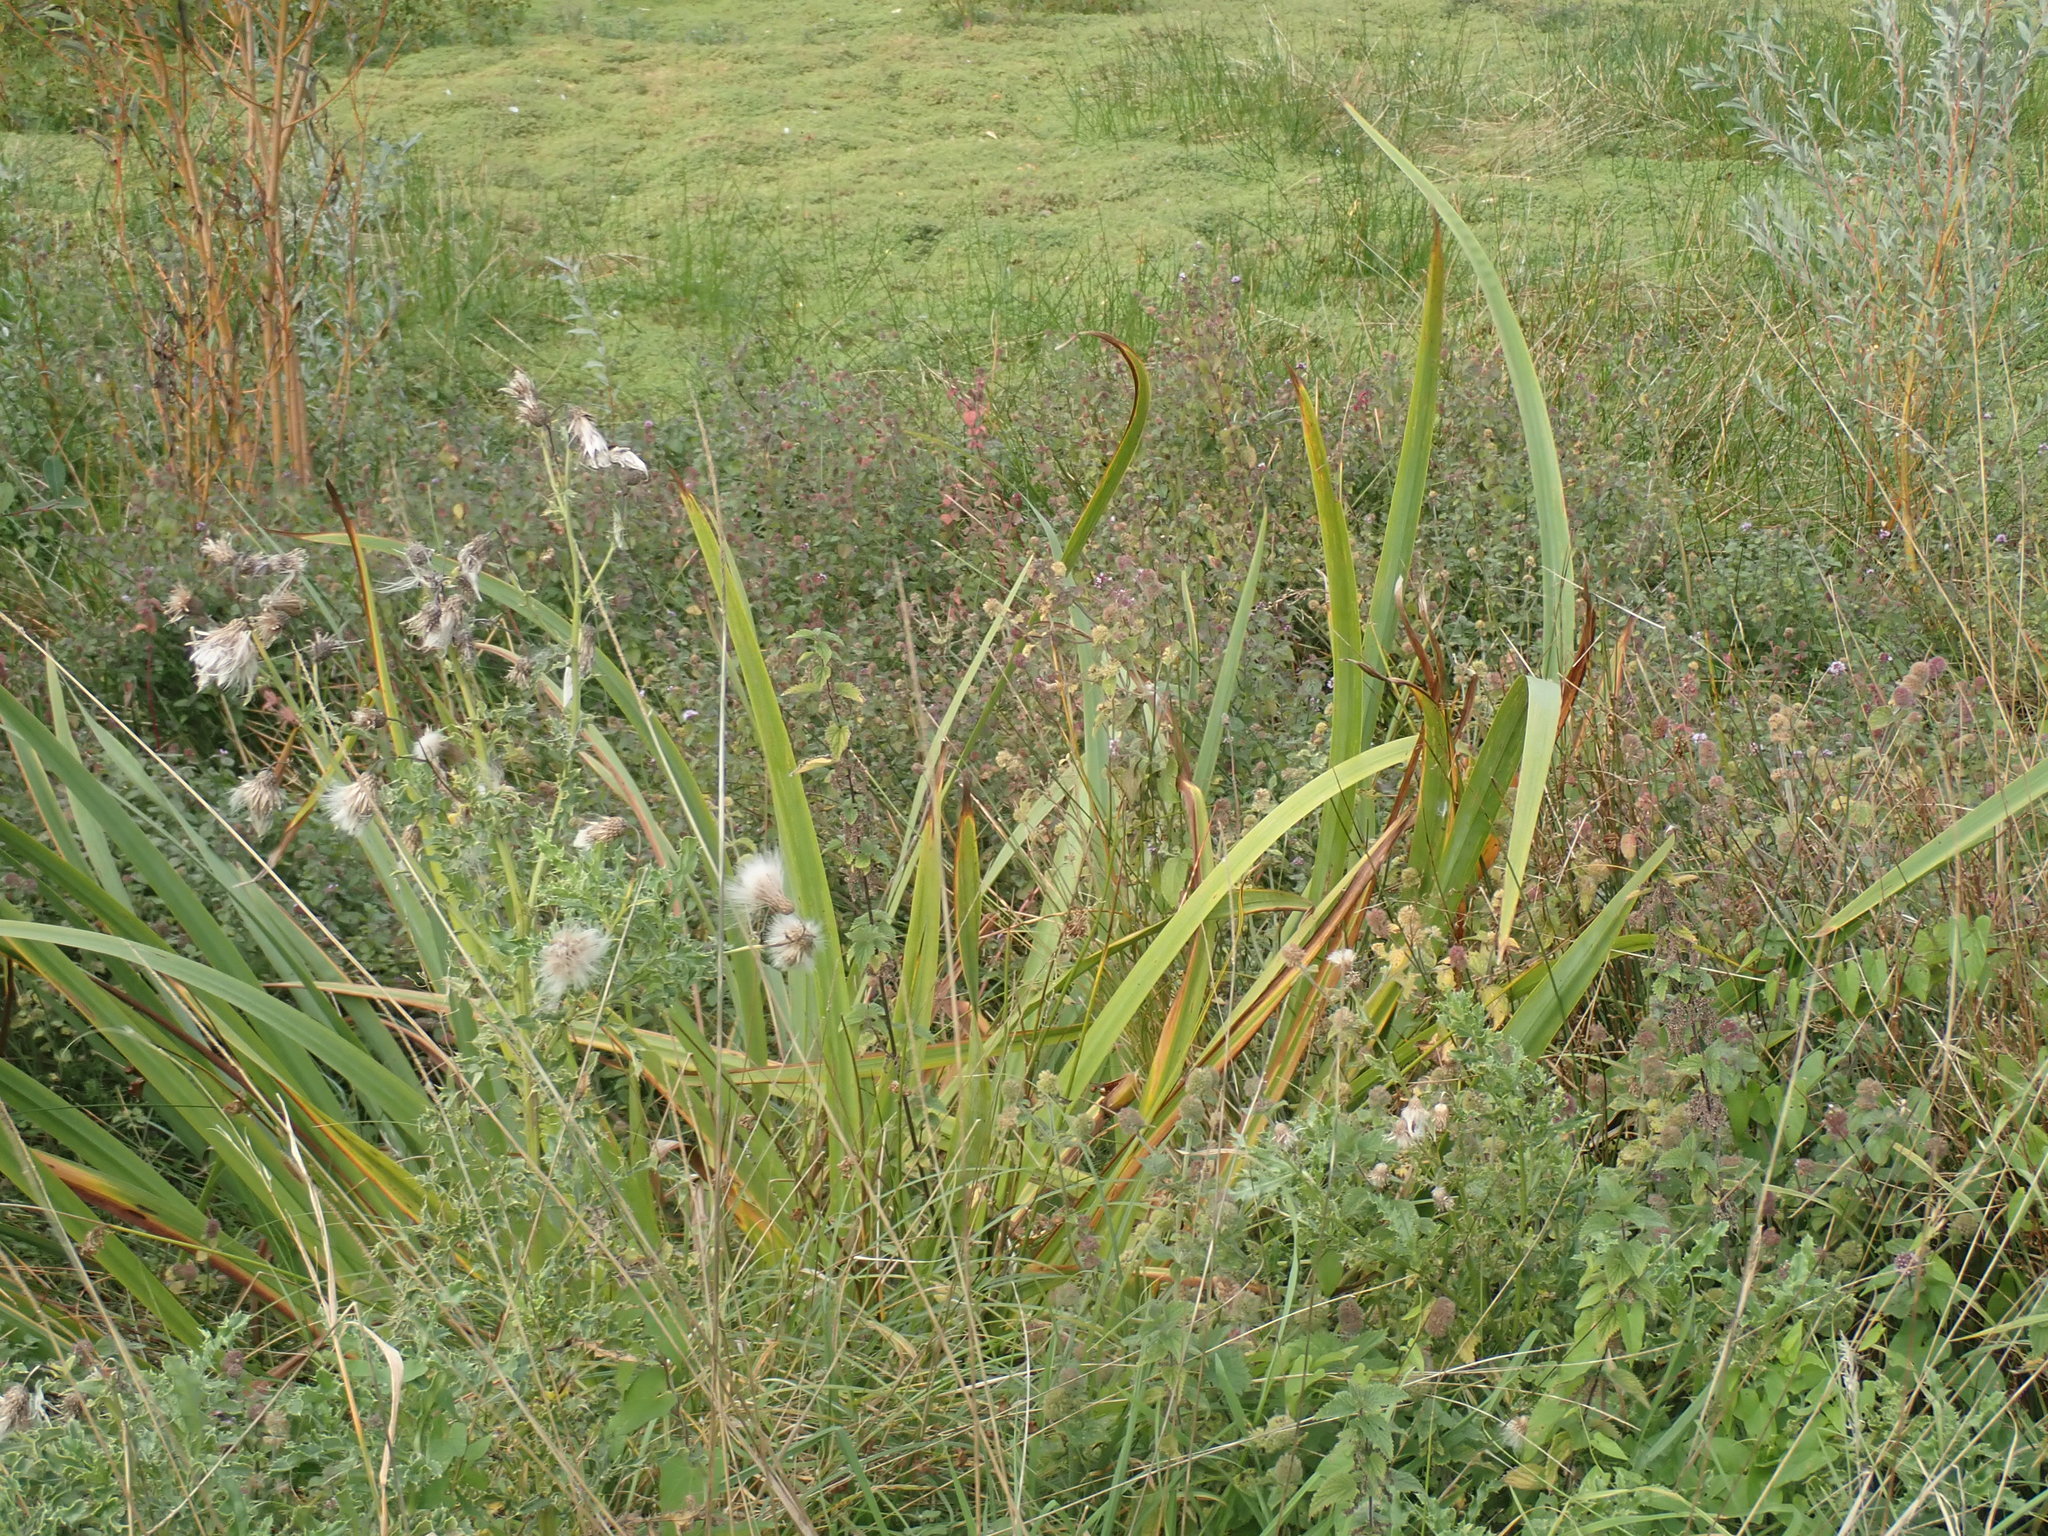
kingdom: Plantae
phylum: Tracheophyta
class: Liliopsida
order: Asparagales
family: Iridaceae
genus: Iris
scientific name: Iris pseudacorus
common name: Yellow flag
